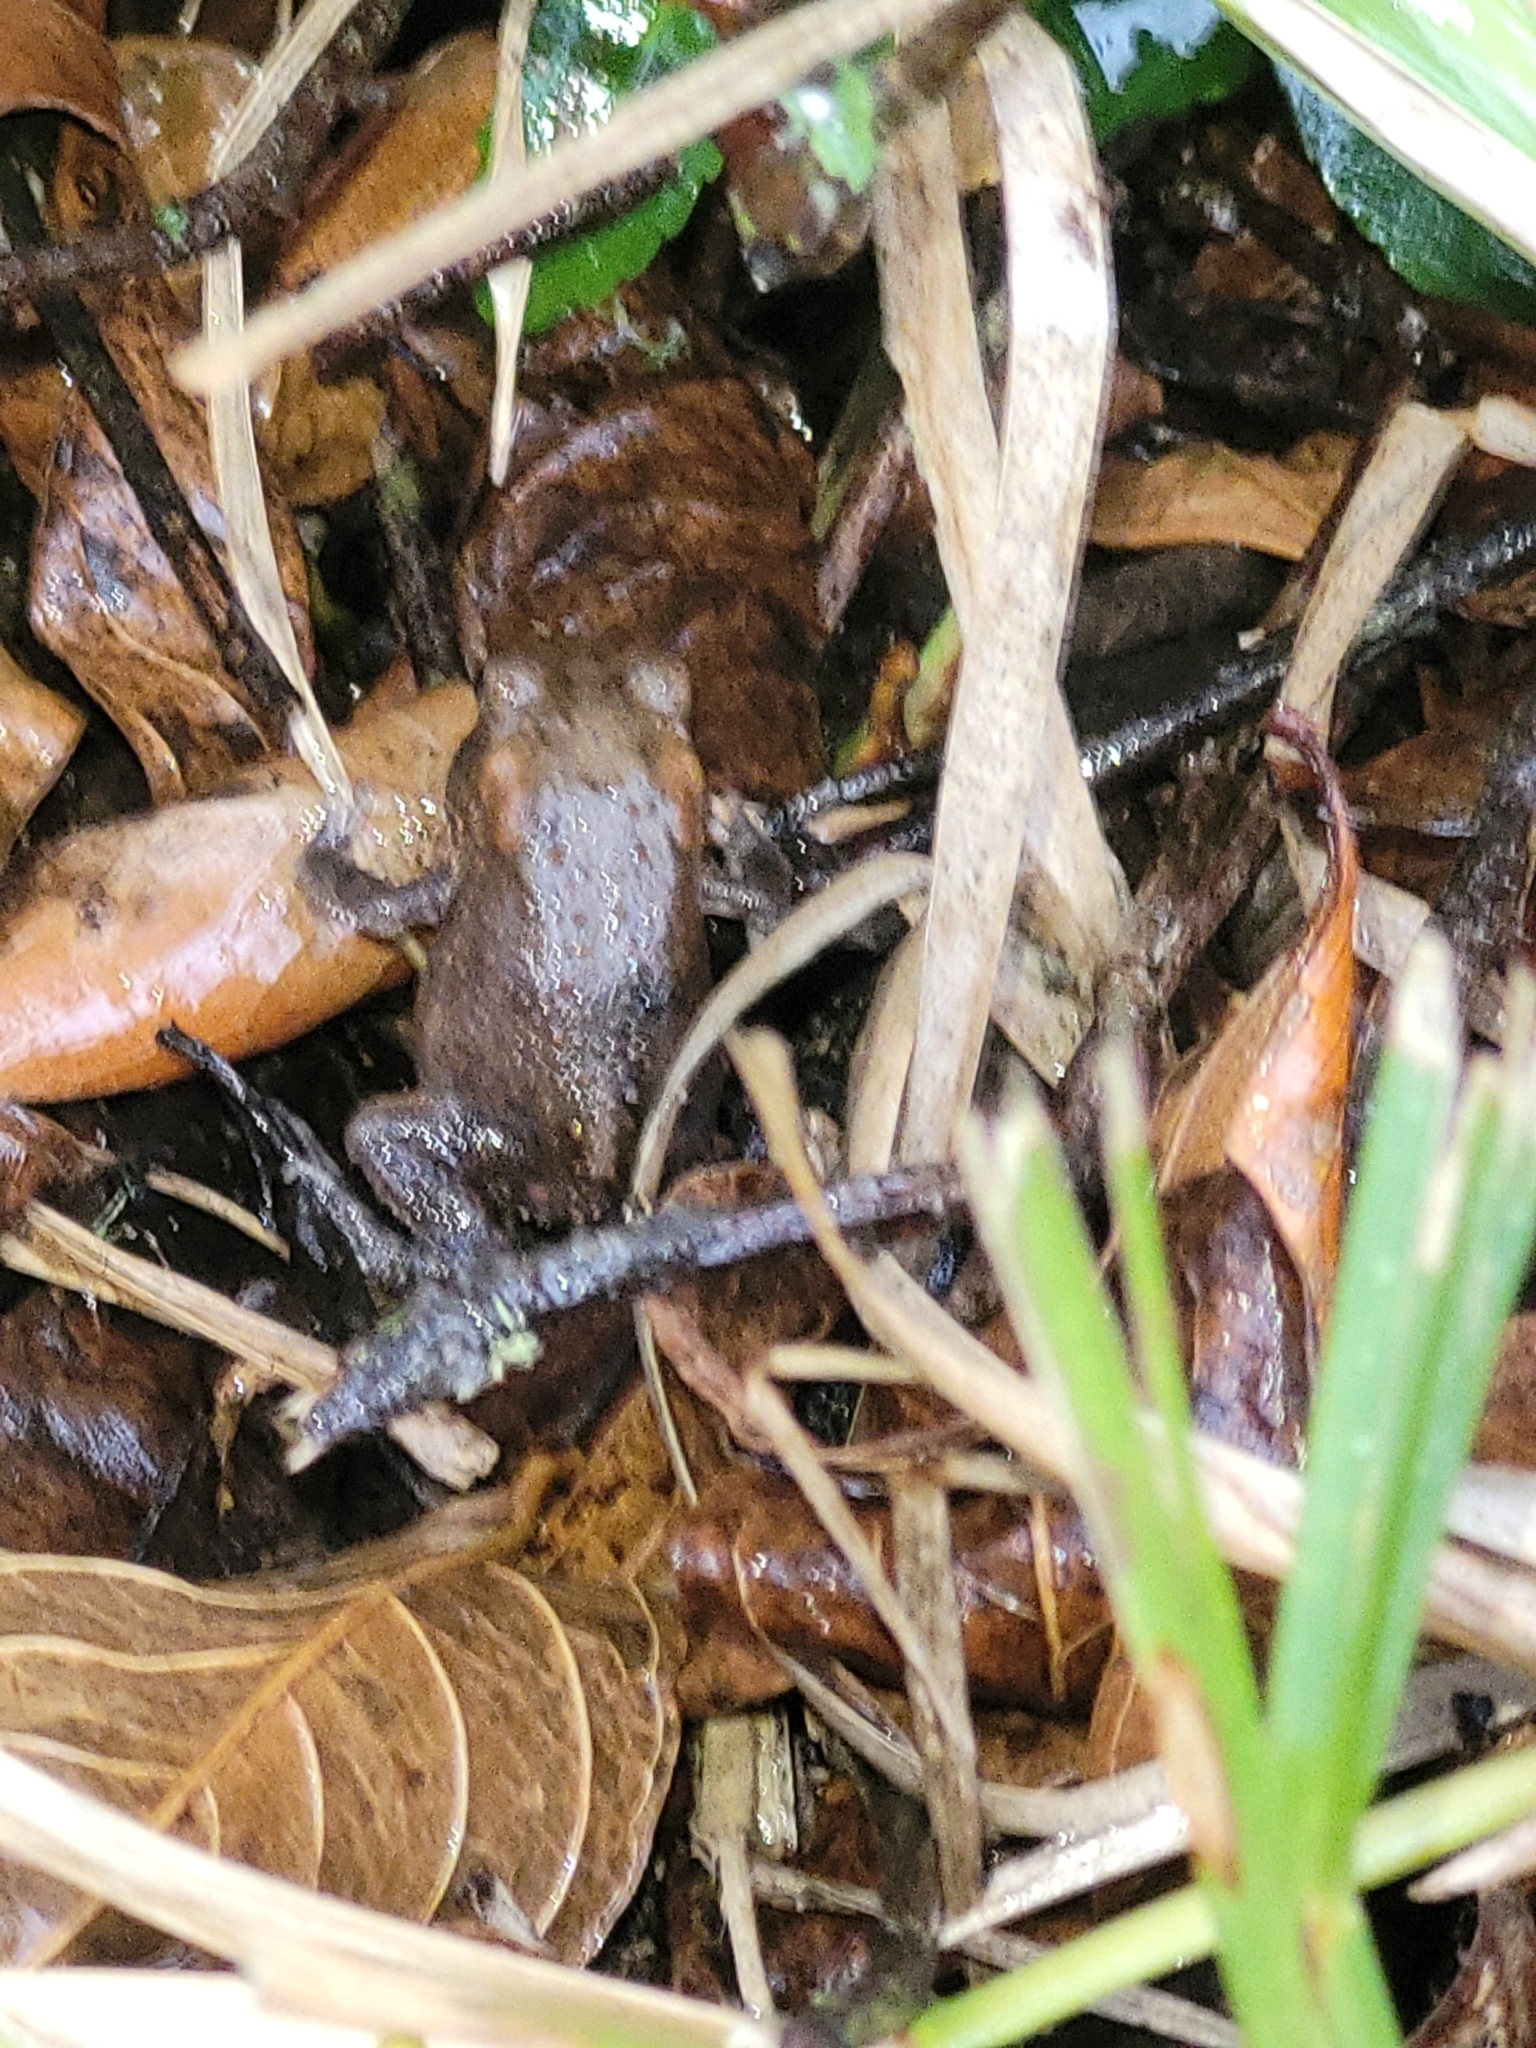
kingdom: Animalia
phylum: Chordata
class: Amphibia
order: Anura
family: Bufonidae
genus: Anaxyrus
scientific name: Anaxyrus terrestris
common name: Southern toad
